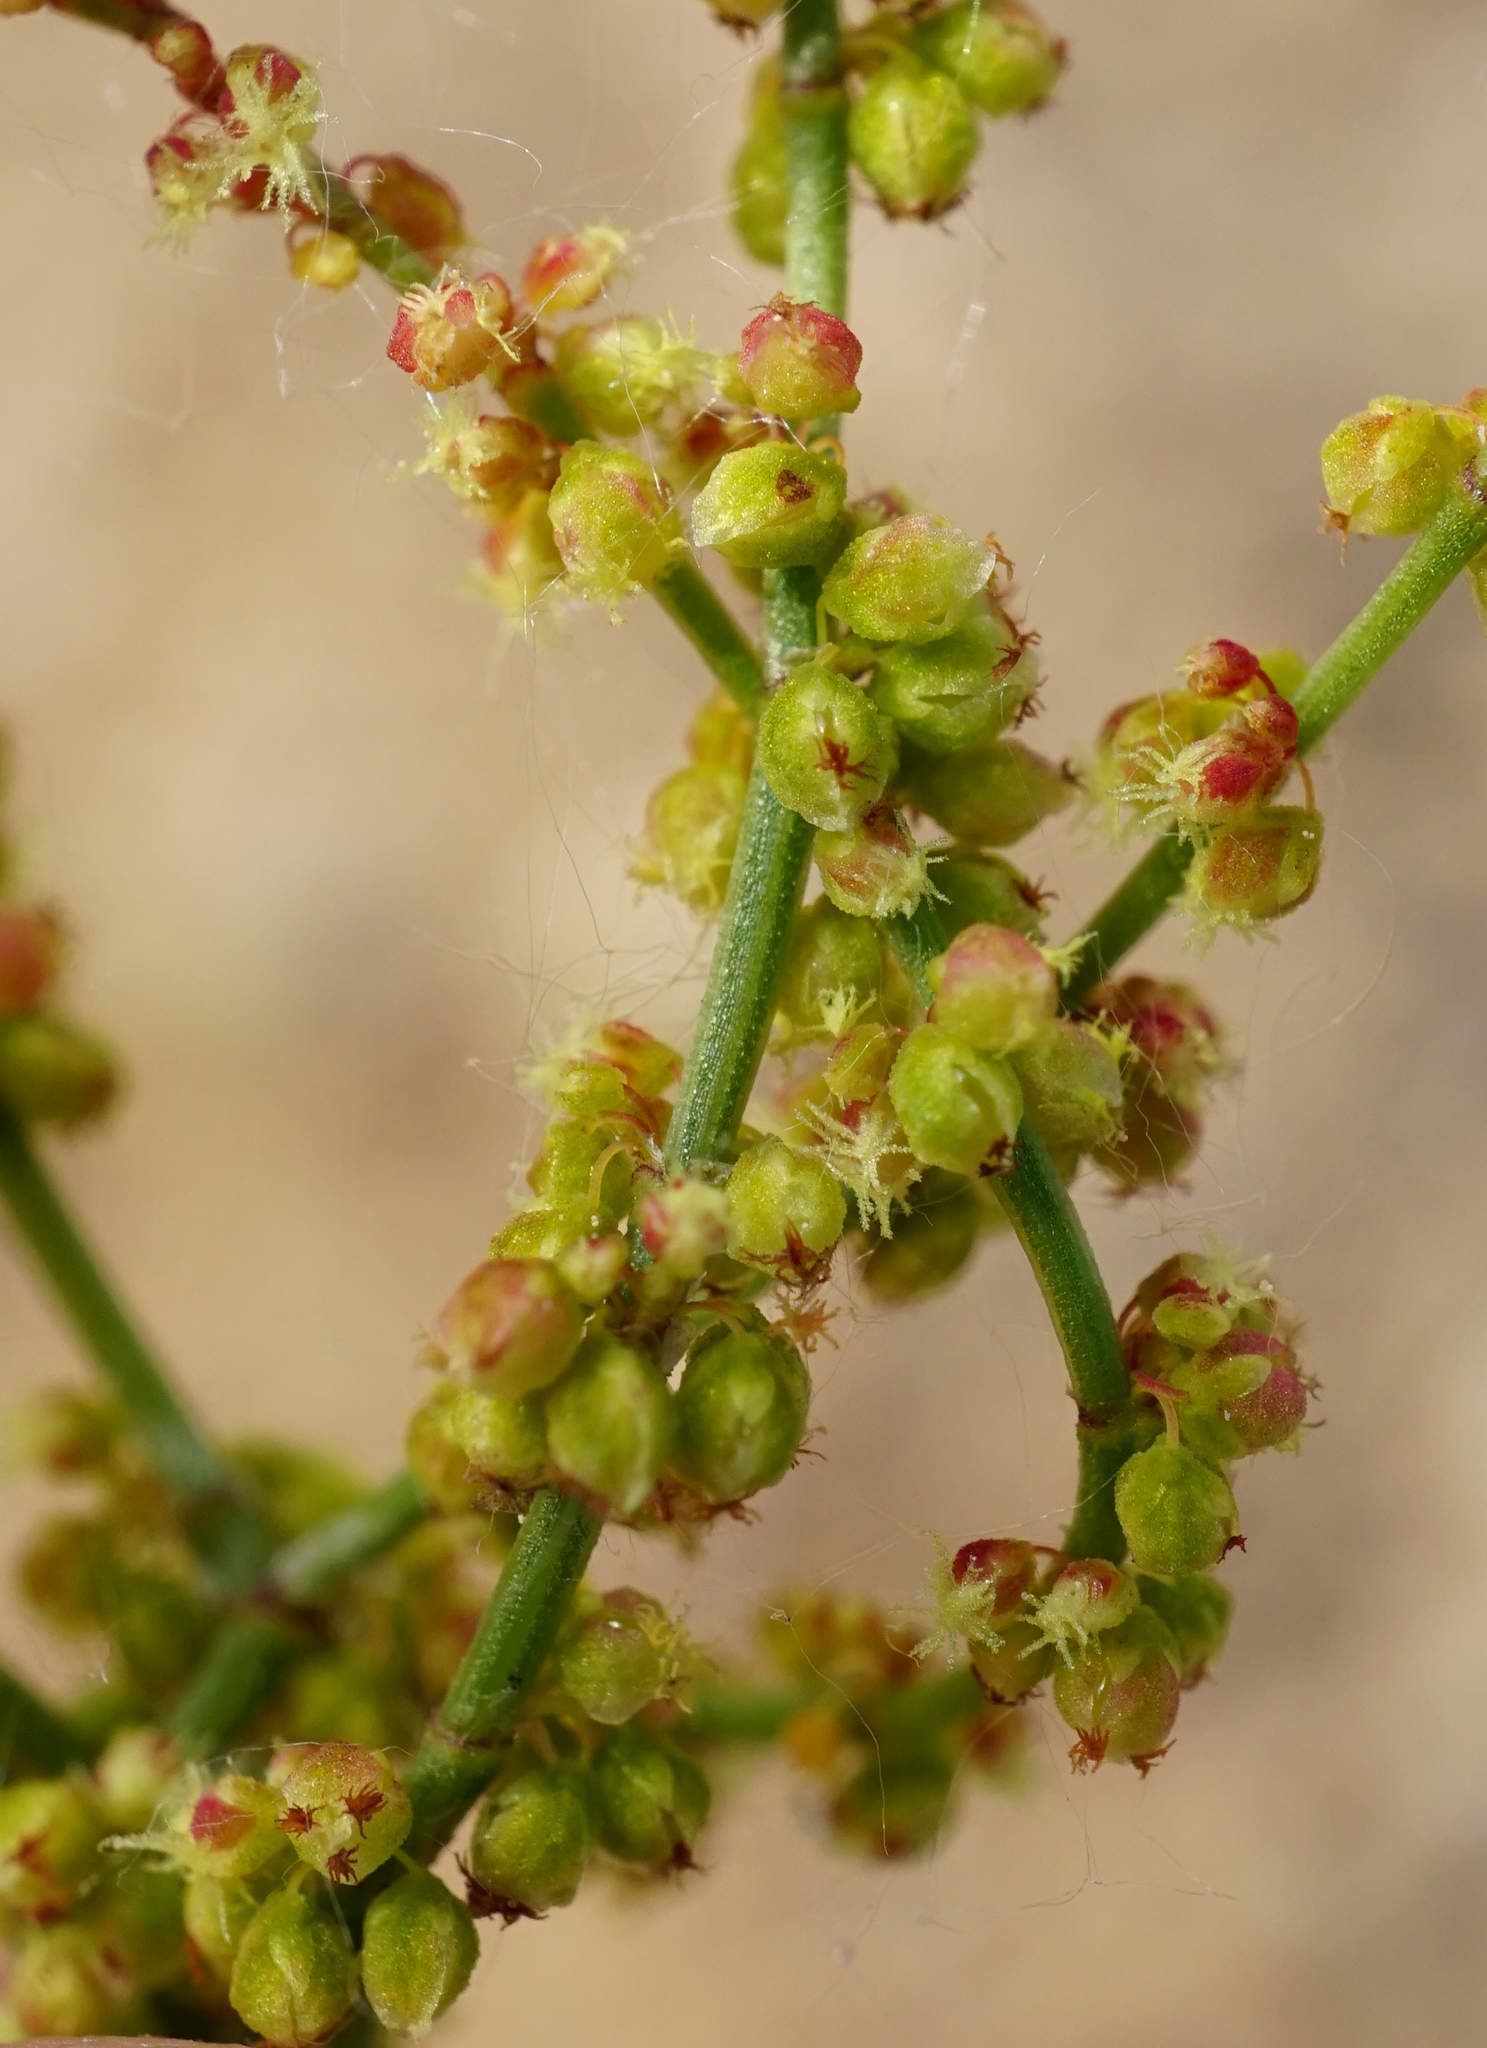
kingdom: Plantae
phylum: Tracheophyta
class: Magnoliopsida
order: Caryophyllales
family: Polygonaceae
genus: Rumex
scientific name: Rumex acetosella
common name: Common sheep sorrel
